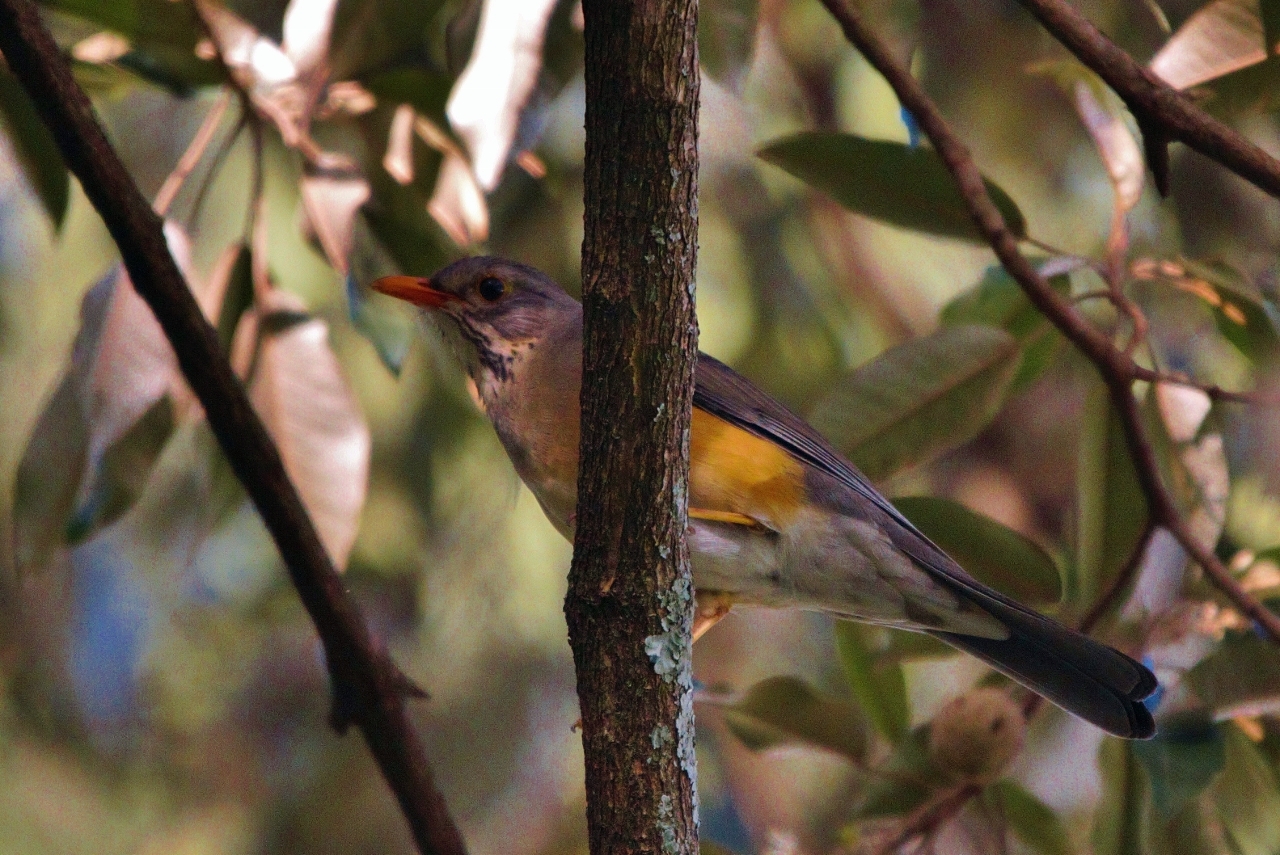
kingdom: Animalia
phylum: Chordata
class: Aves
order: Passeriformes
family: Turdidae
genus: Turdus
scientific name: Turdus libonyana
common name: Kurrichane thrush
